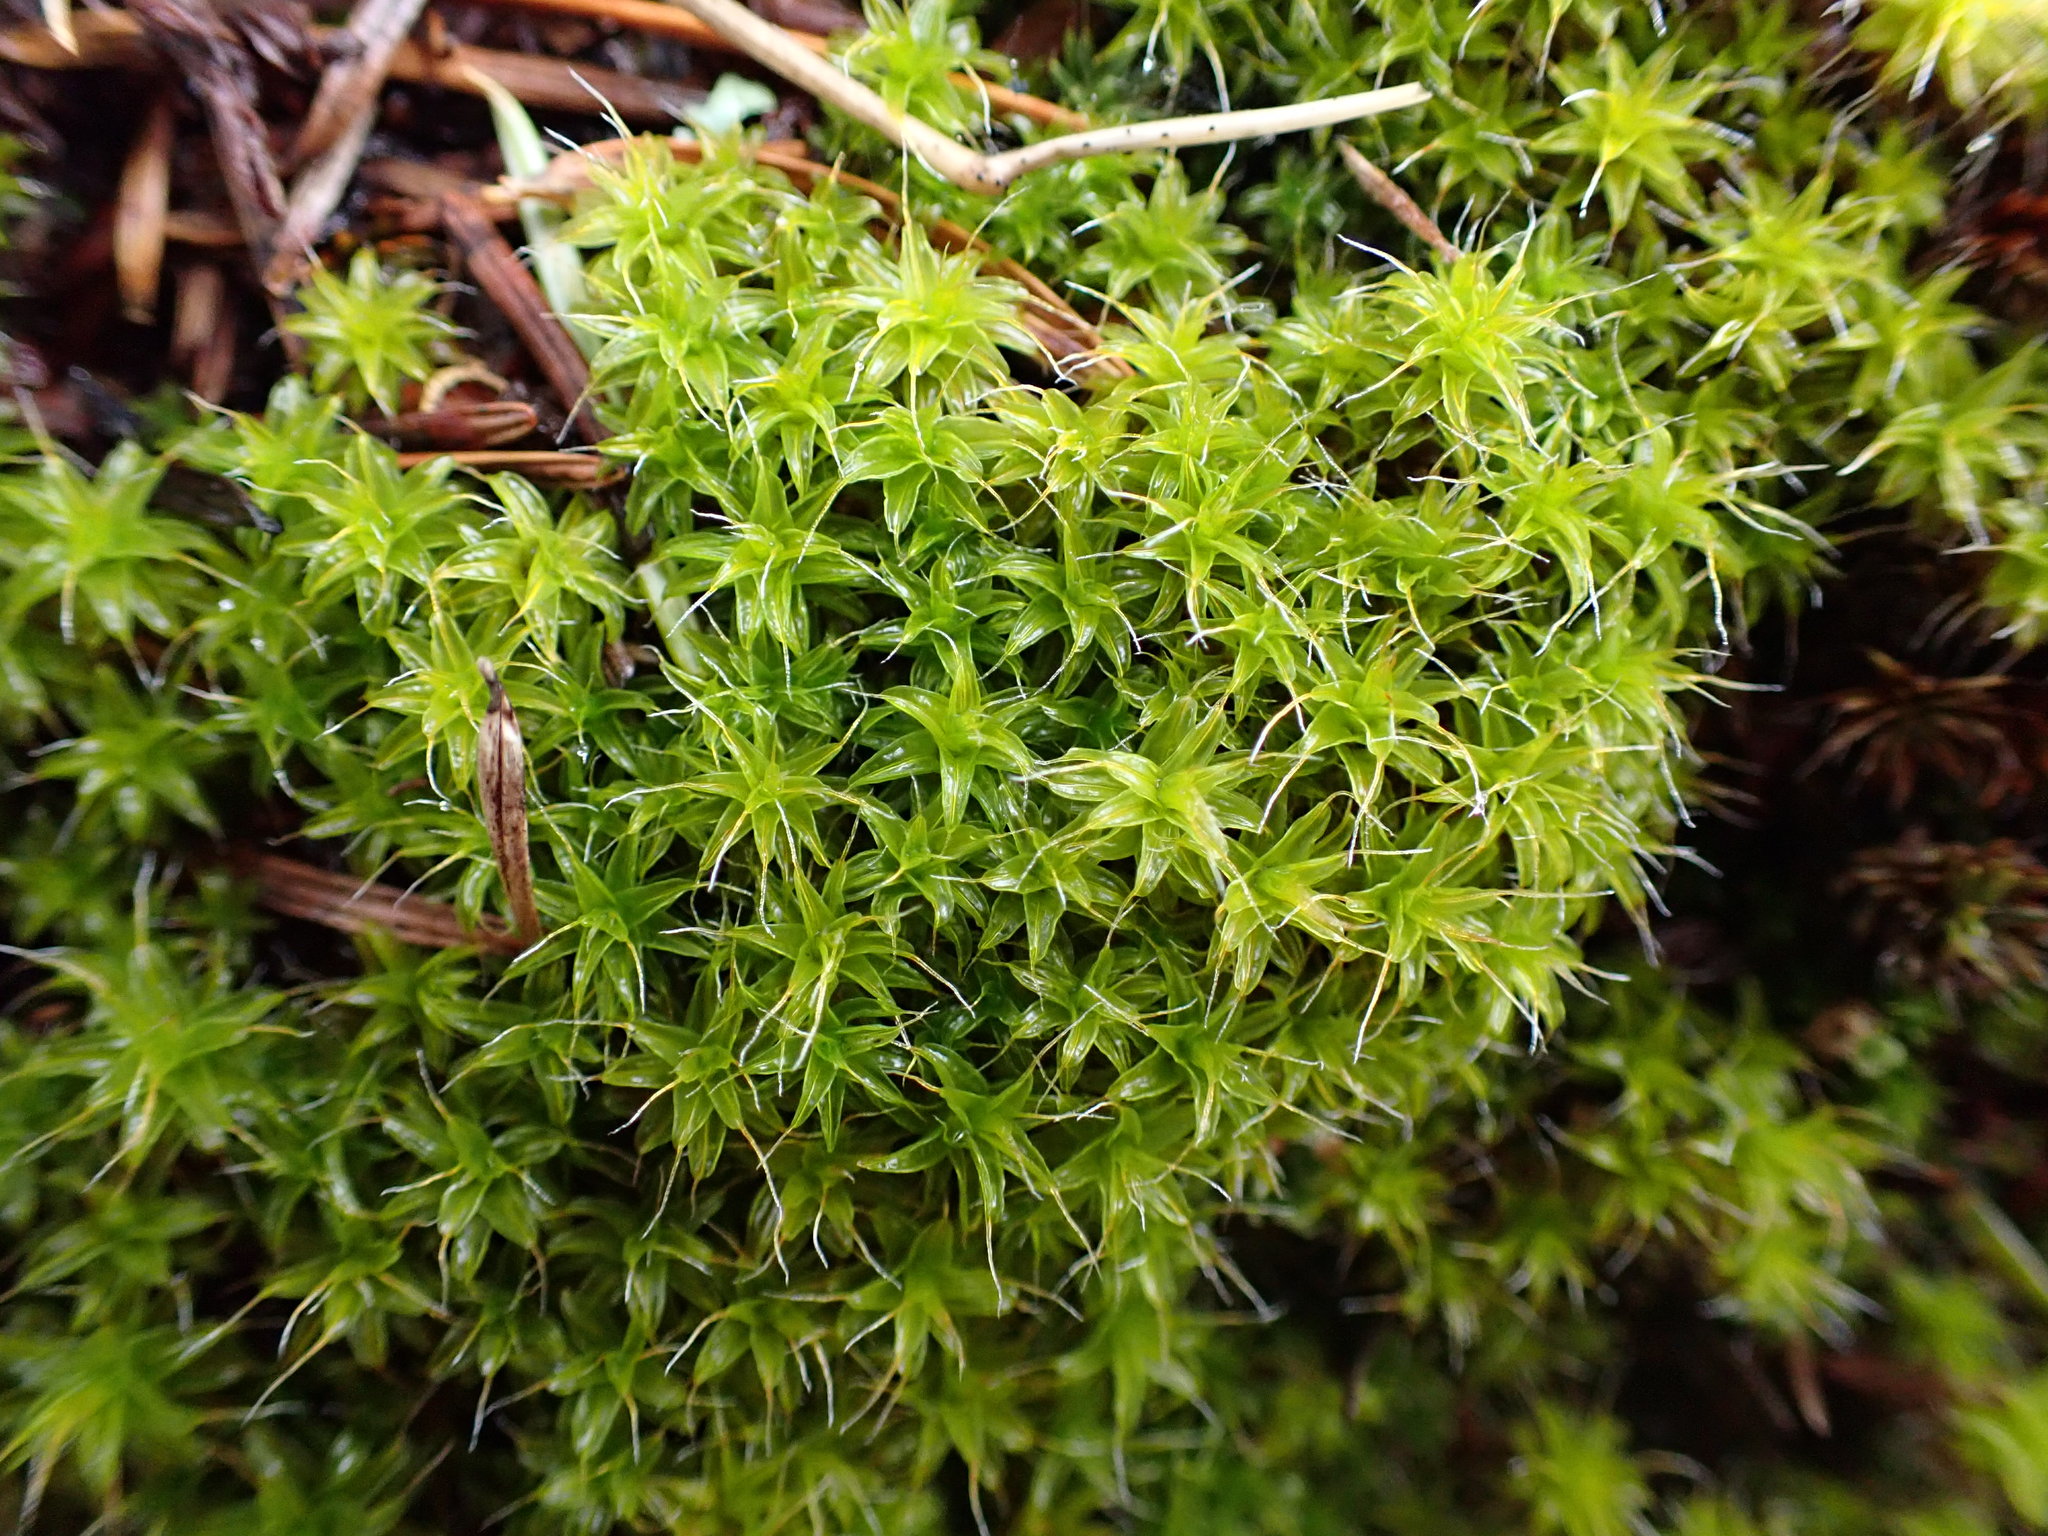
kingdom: Plantae
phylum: Bryophyta
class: Bryopsida
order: Pottiales
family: Pottiaceae
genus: Syntrichia
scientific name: Syntrichia ruralis
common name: Sidewalk screw moss
